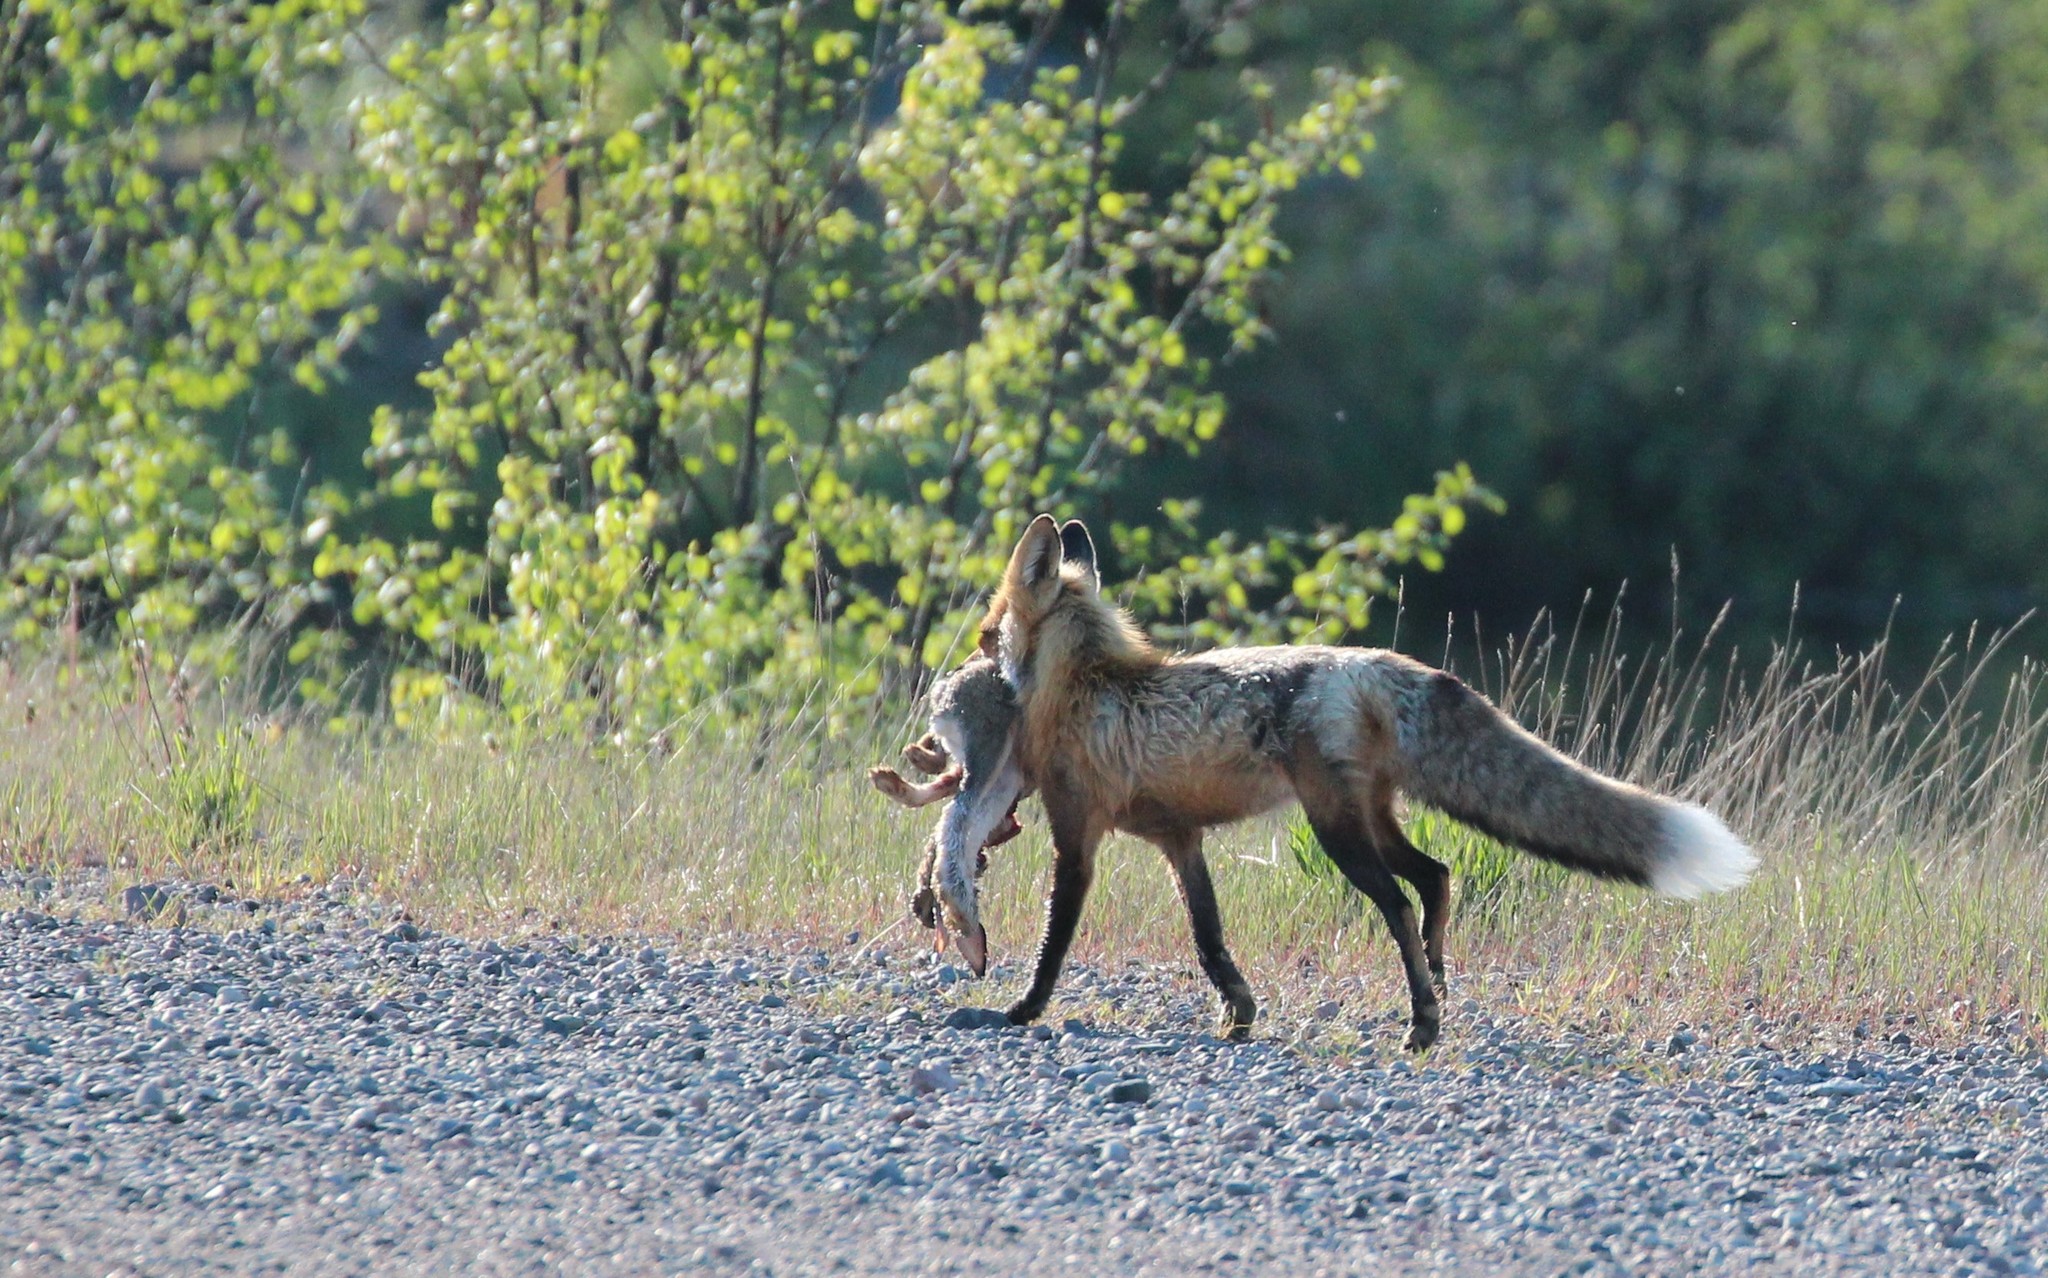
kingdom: Animalia
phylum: Chordata
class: Mammalia
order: Lagomorpha
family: Leporidae
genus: Lepus
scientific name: Lepus americanus
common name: Snowshoe hare
